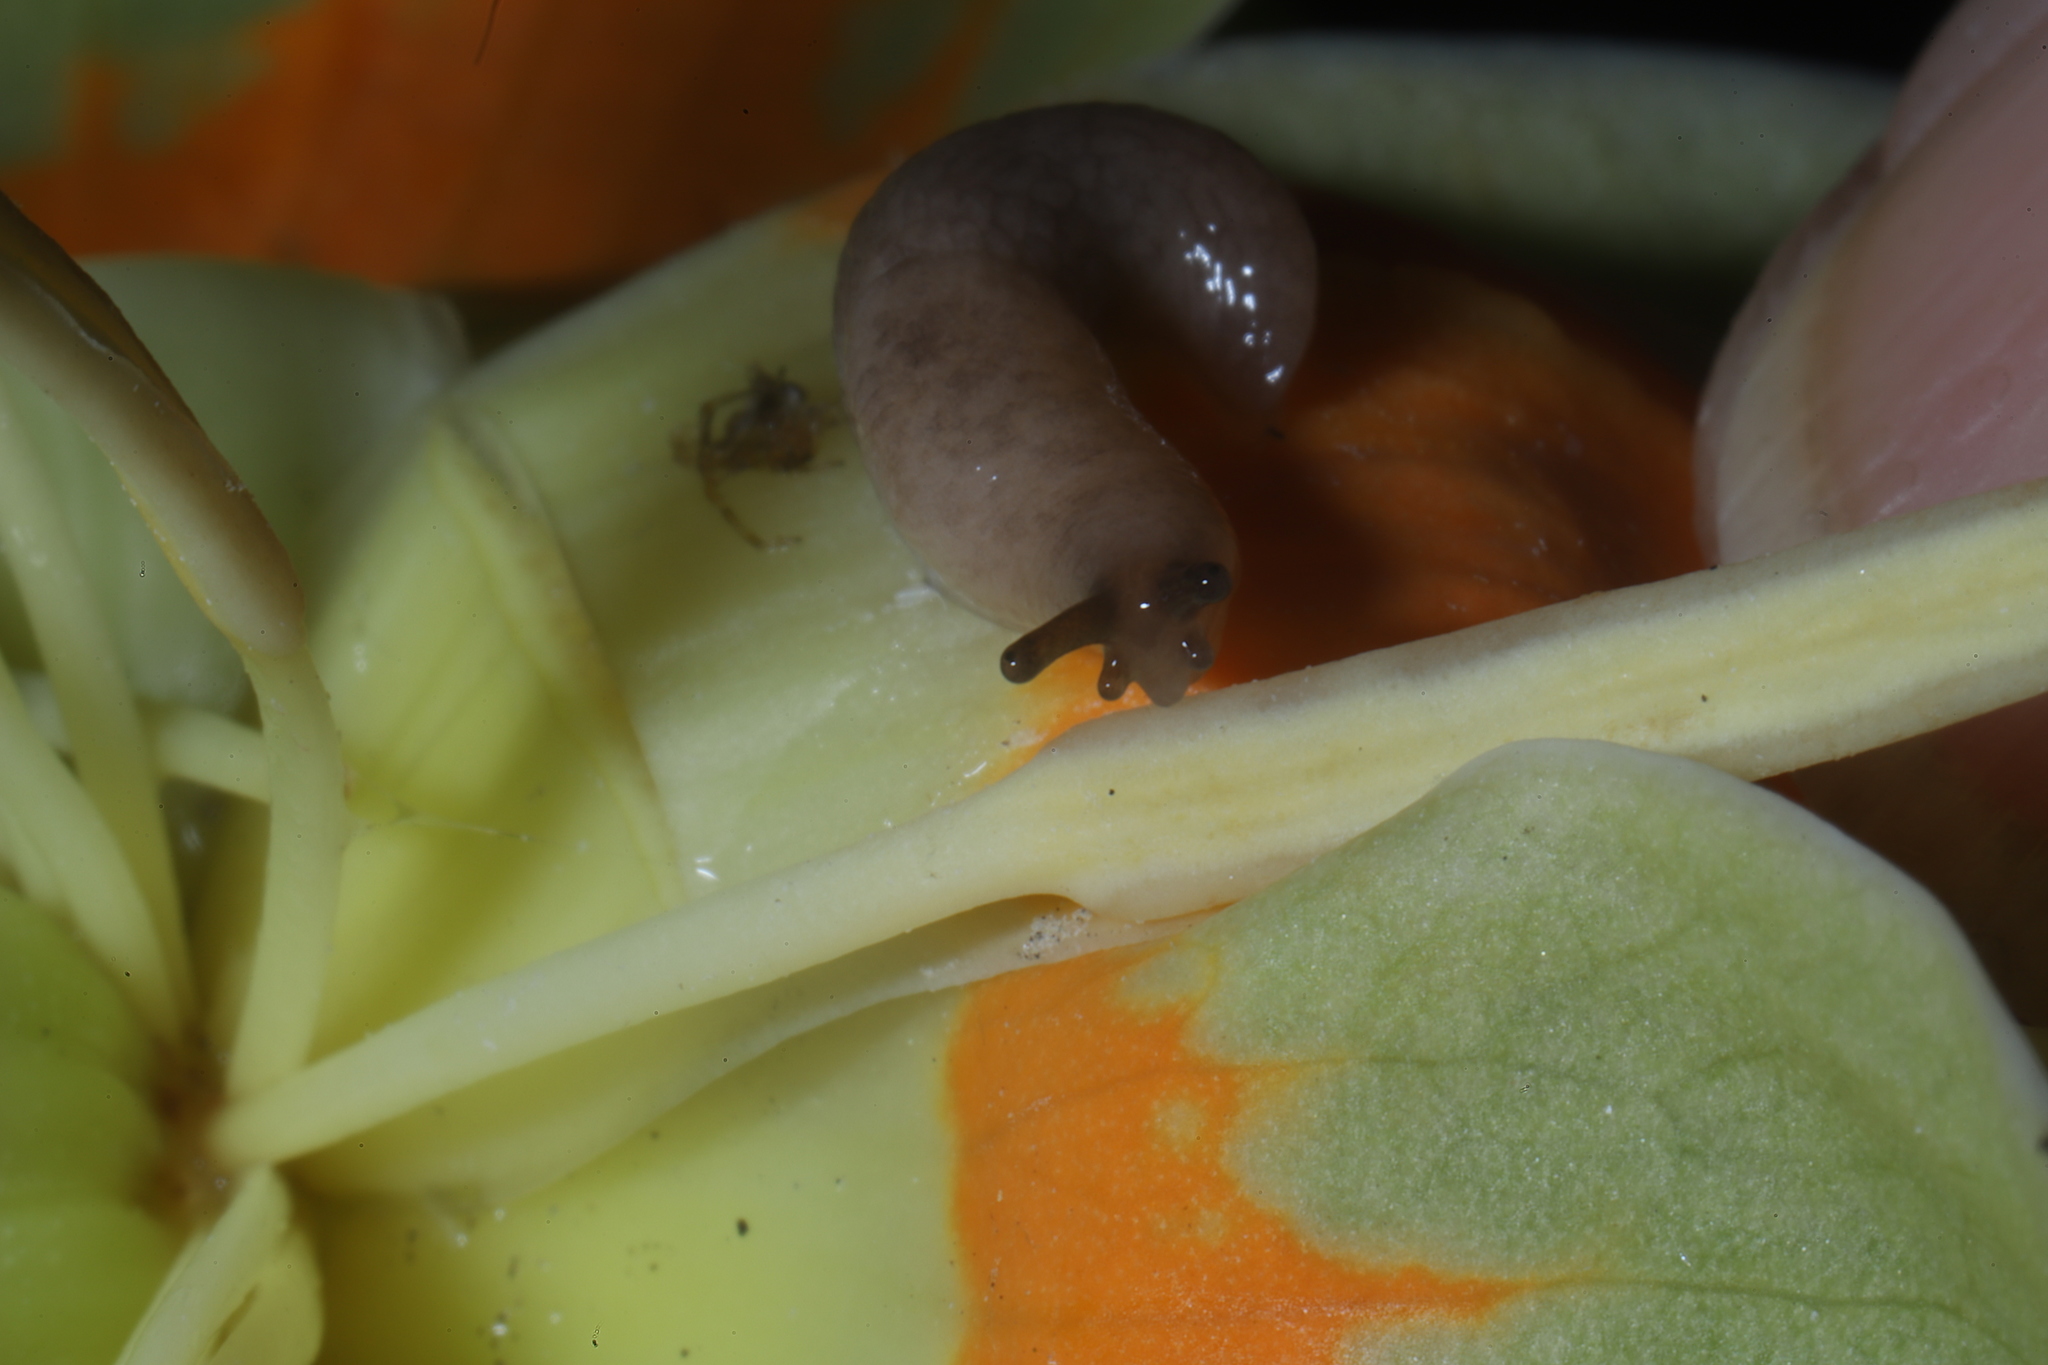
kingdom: Animalia
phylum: Mollusca
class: Gastropoda
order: Stylommatophora
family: Arionidae
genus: Arion
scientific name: Arion hortensis
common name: Garden arion
